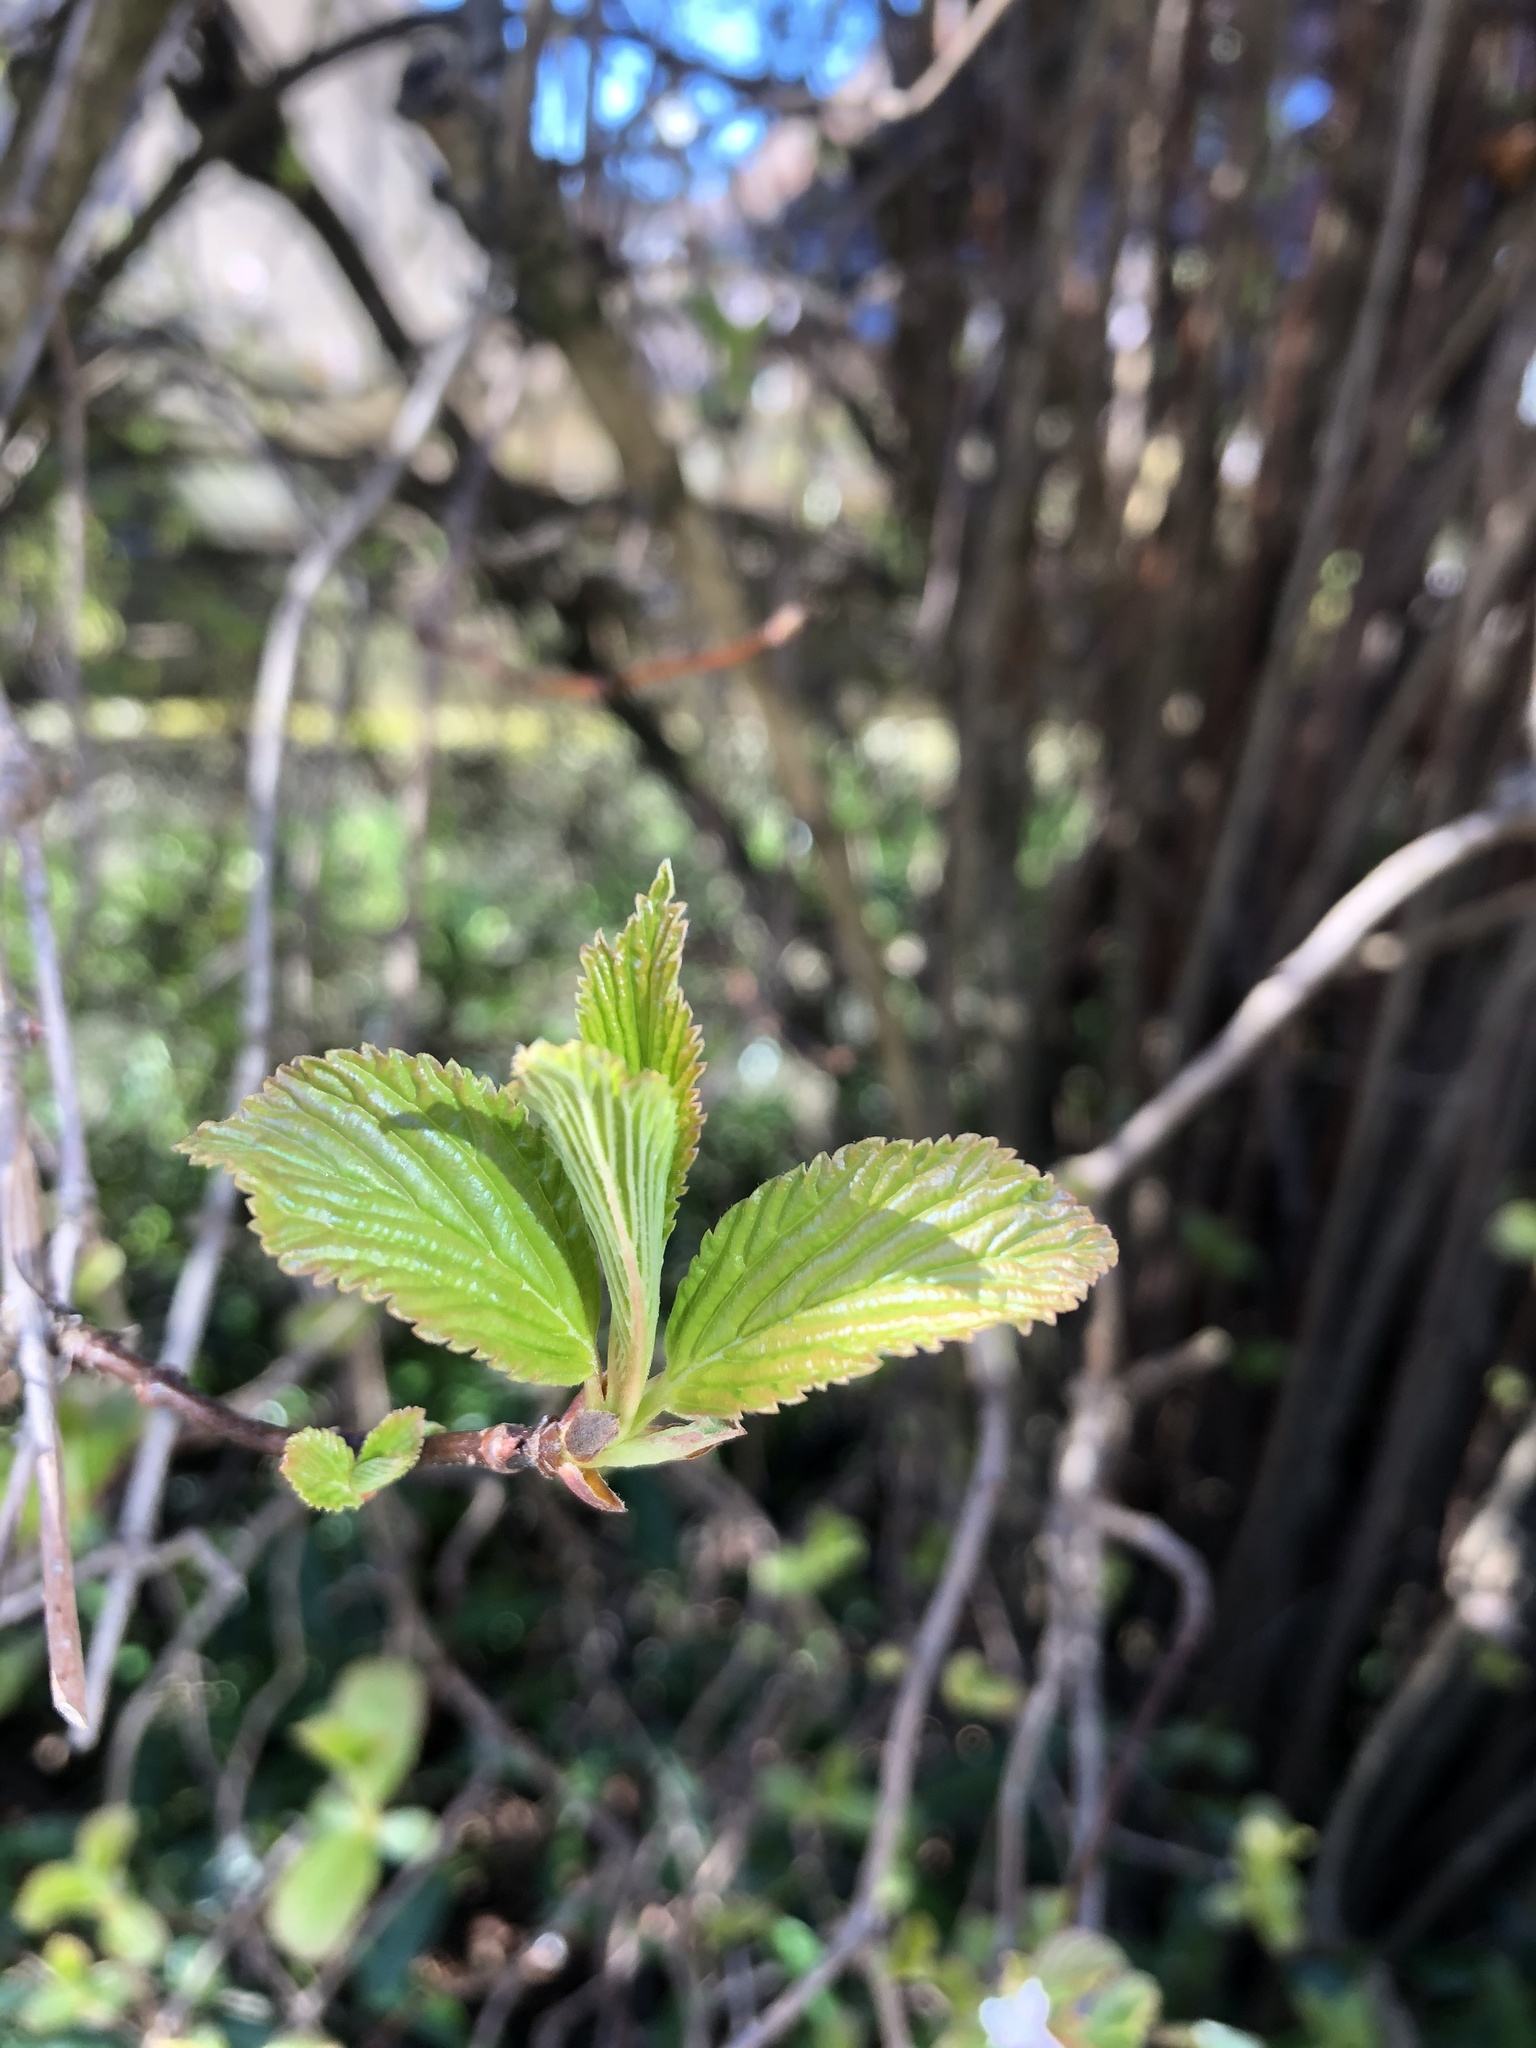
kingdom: Plantae
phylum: Tracheophyta
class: Magnoliopsida
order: Dipsacales
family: Viburnaceae
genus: Viburnum
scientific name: Viburnum bodnantense
